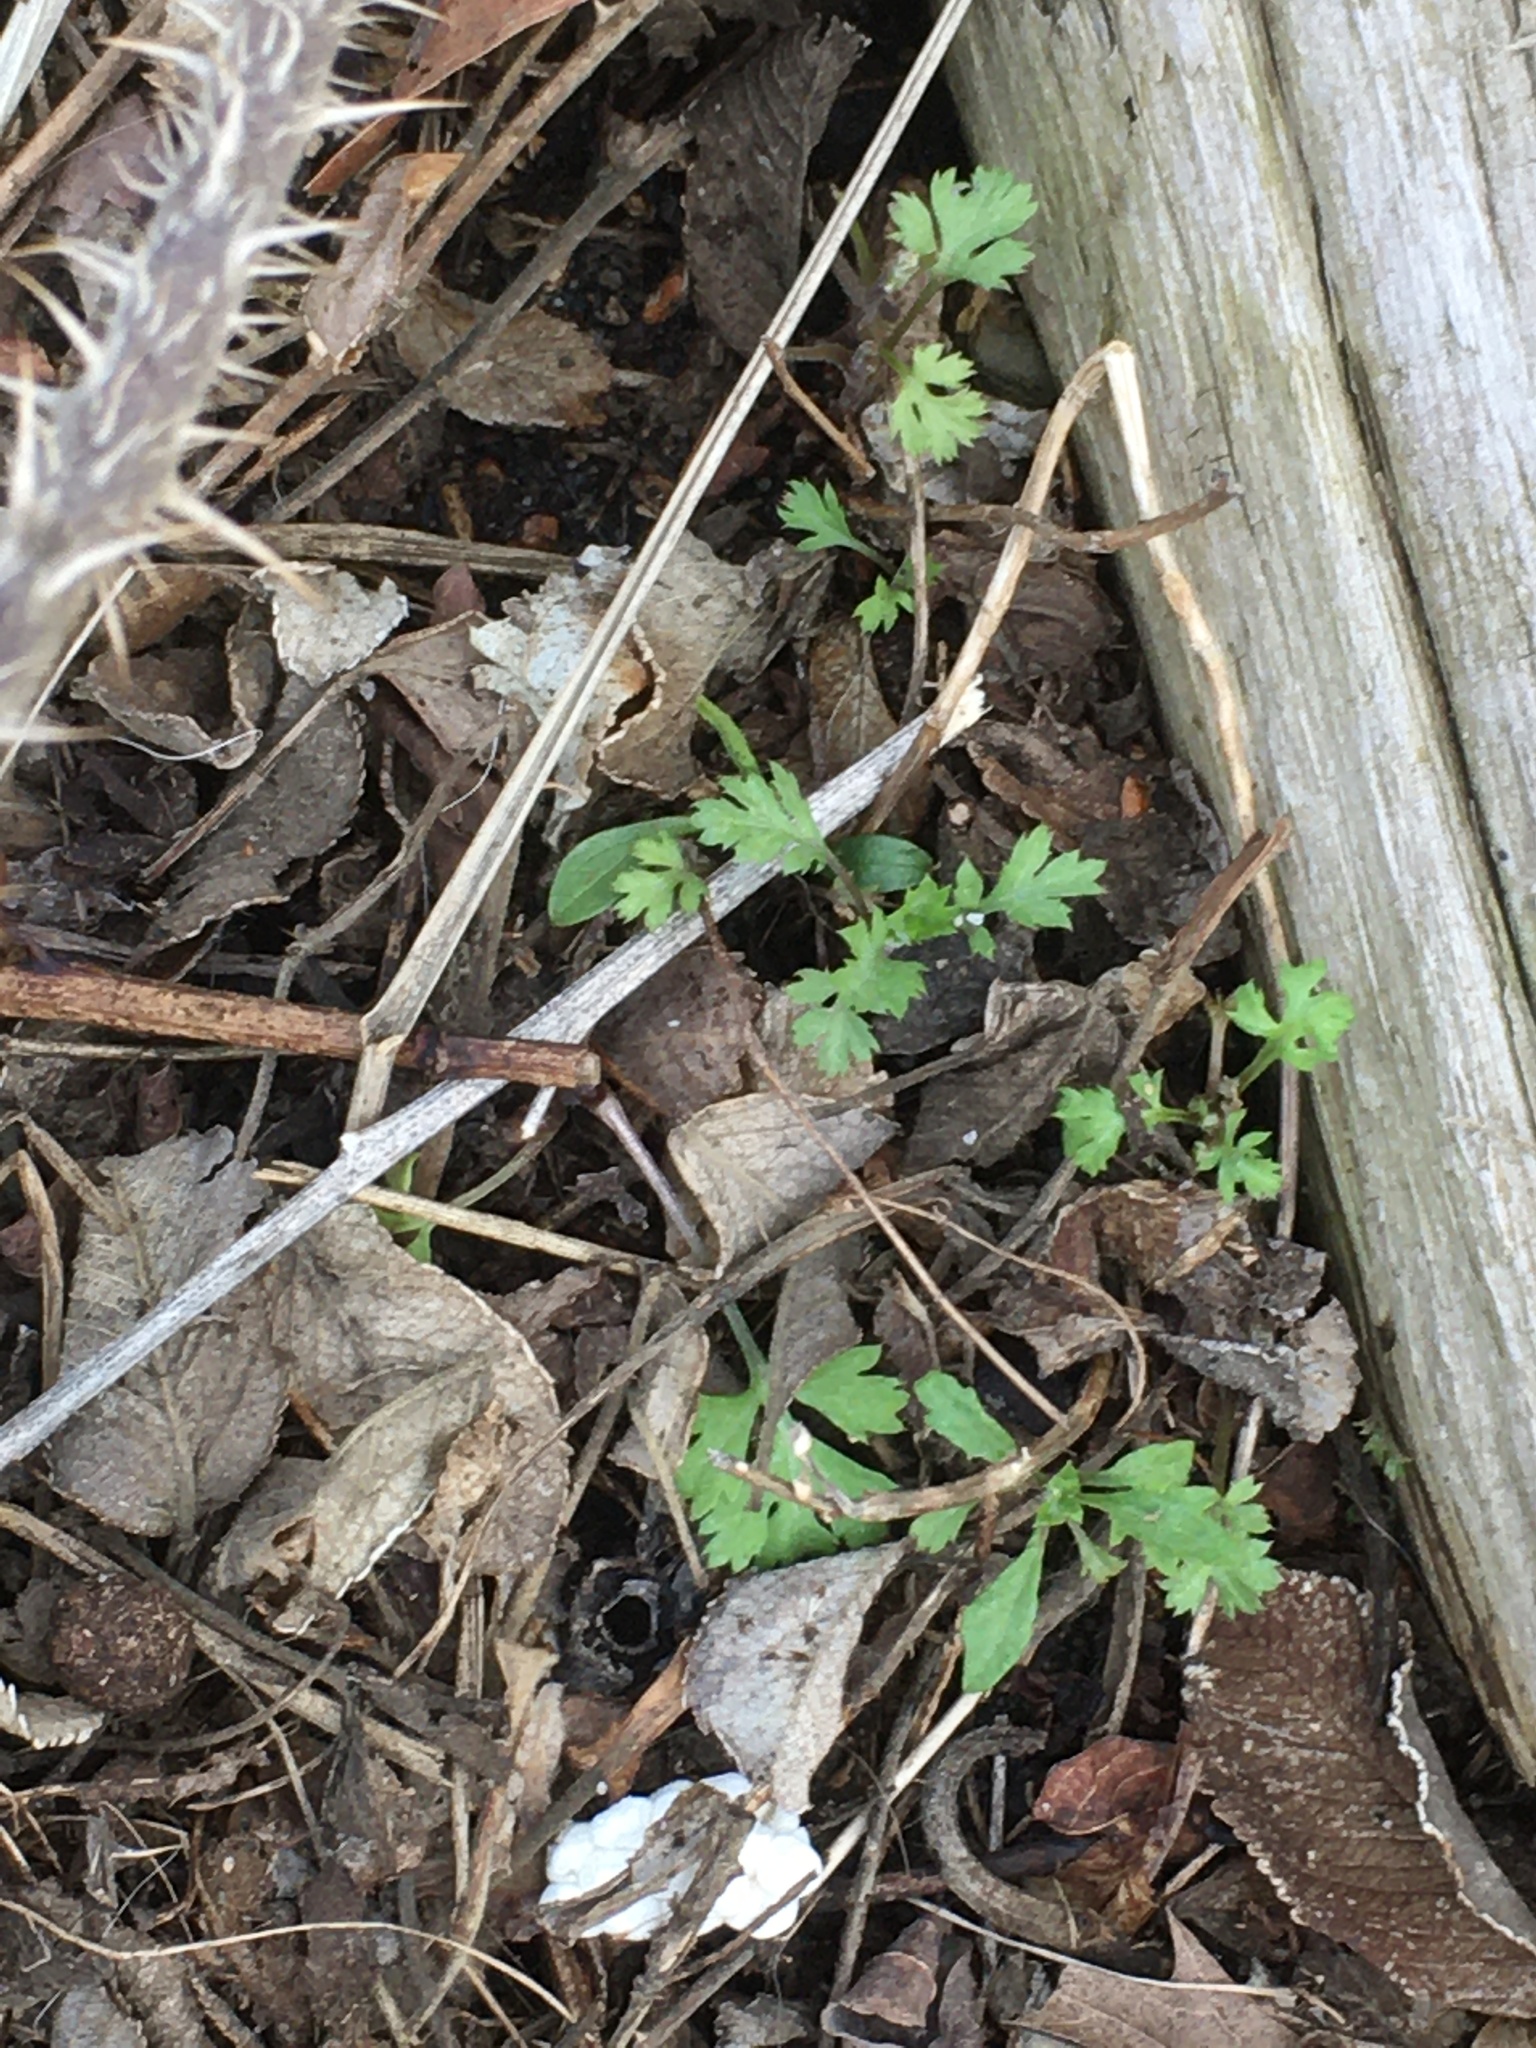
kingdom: Plantae
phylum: Tracheophyta
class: Magnoliopsida
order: Asterales
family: Asteraceae
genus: Artemisia
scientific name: Artemisia vulgaris
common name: Mugwort
